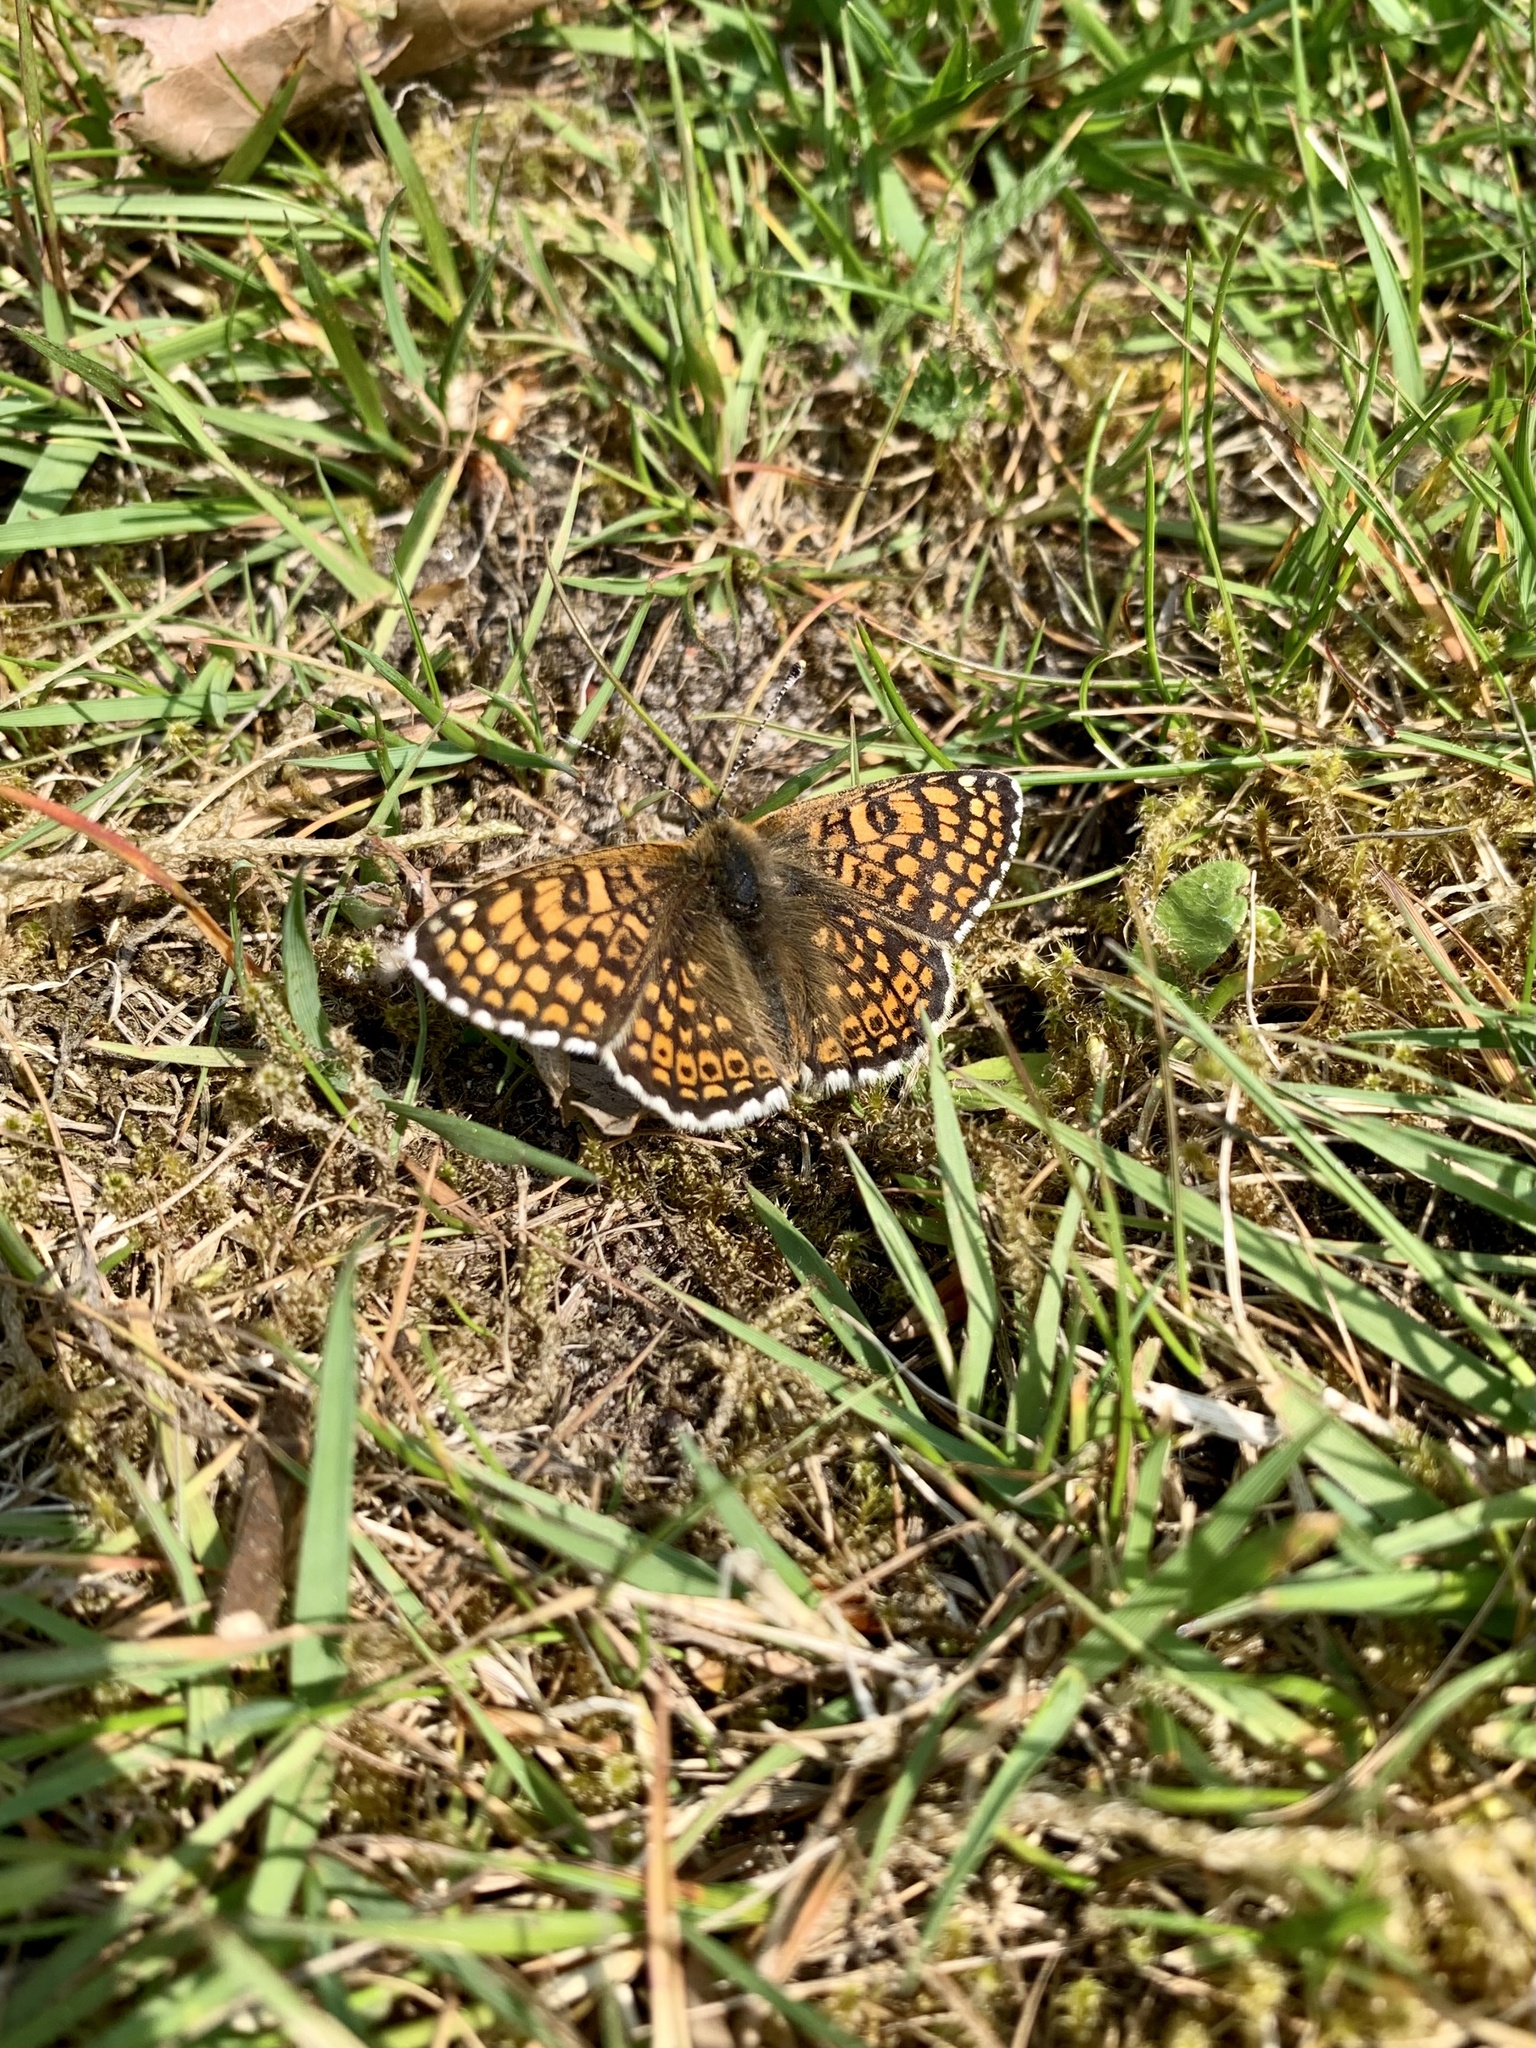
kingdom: Animalia
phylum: Arthropoda
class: Insecta
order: Lepidoptera
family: Nymphalidae
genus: Melitaea
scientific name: Melitaea cinxia
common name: Glanville fritillary
